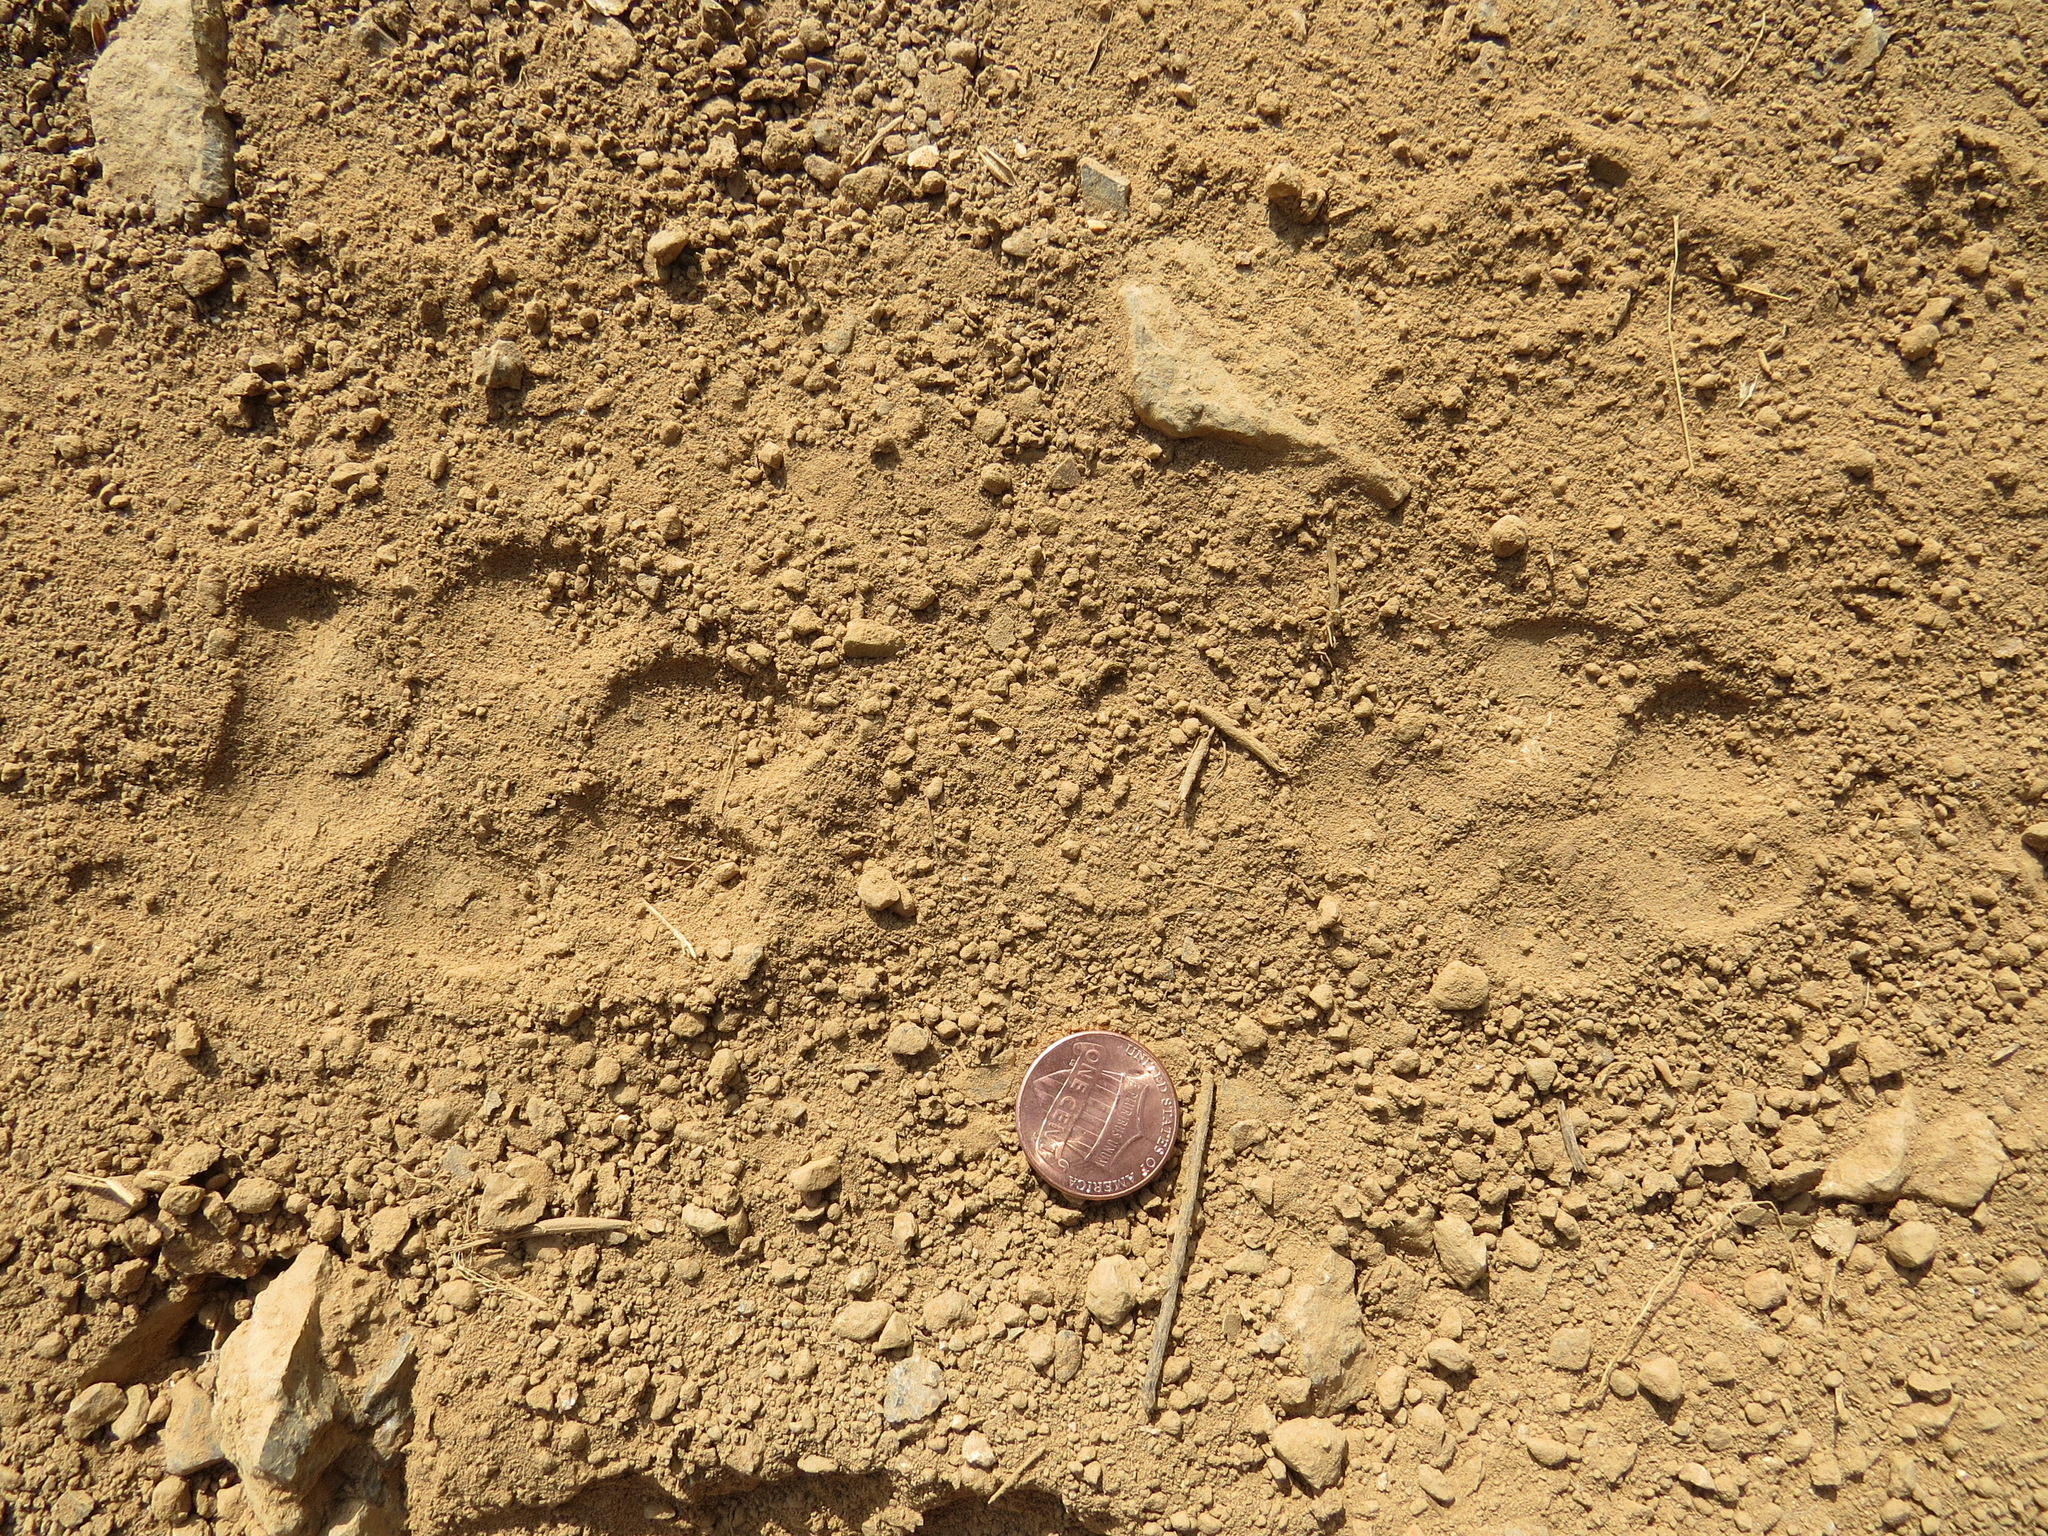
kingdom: Animalia
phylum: Chordata
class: Mammalia
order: Carnivora
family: Canidae
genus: Canis
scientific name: Canis latrans
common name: Coyote
